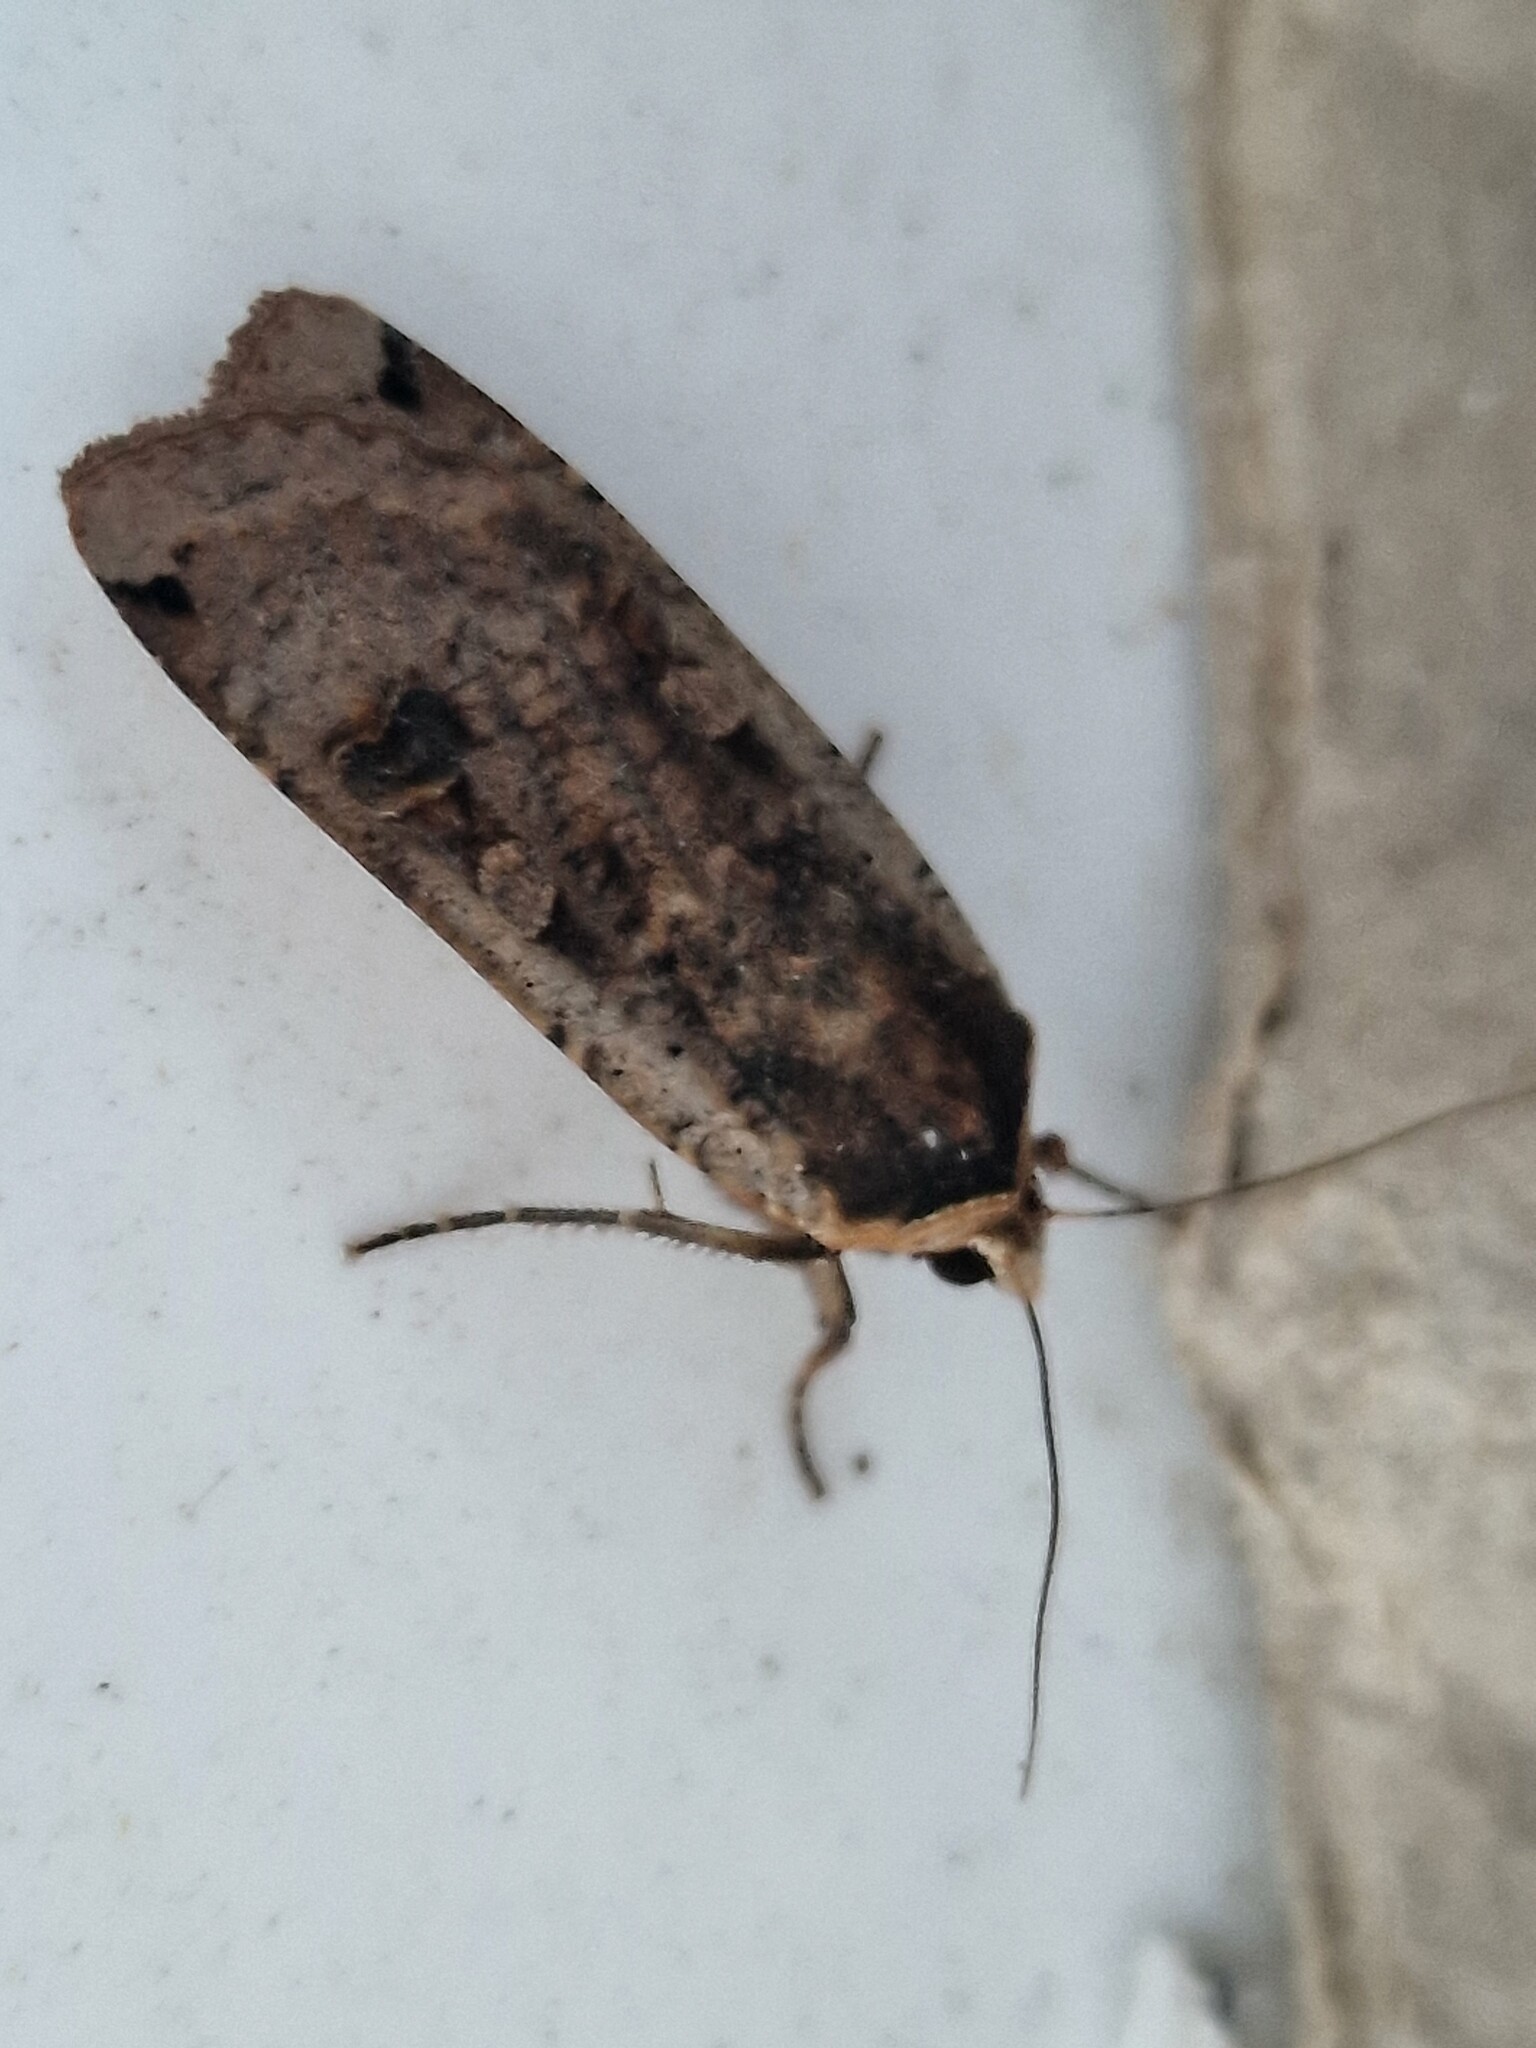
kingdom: Animalia
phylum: Arthropoda
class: Insecta
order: Lepidoptera
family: Noctuidae
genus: Noctua
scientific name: Noctua pronuba
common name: Large yellow underwing
